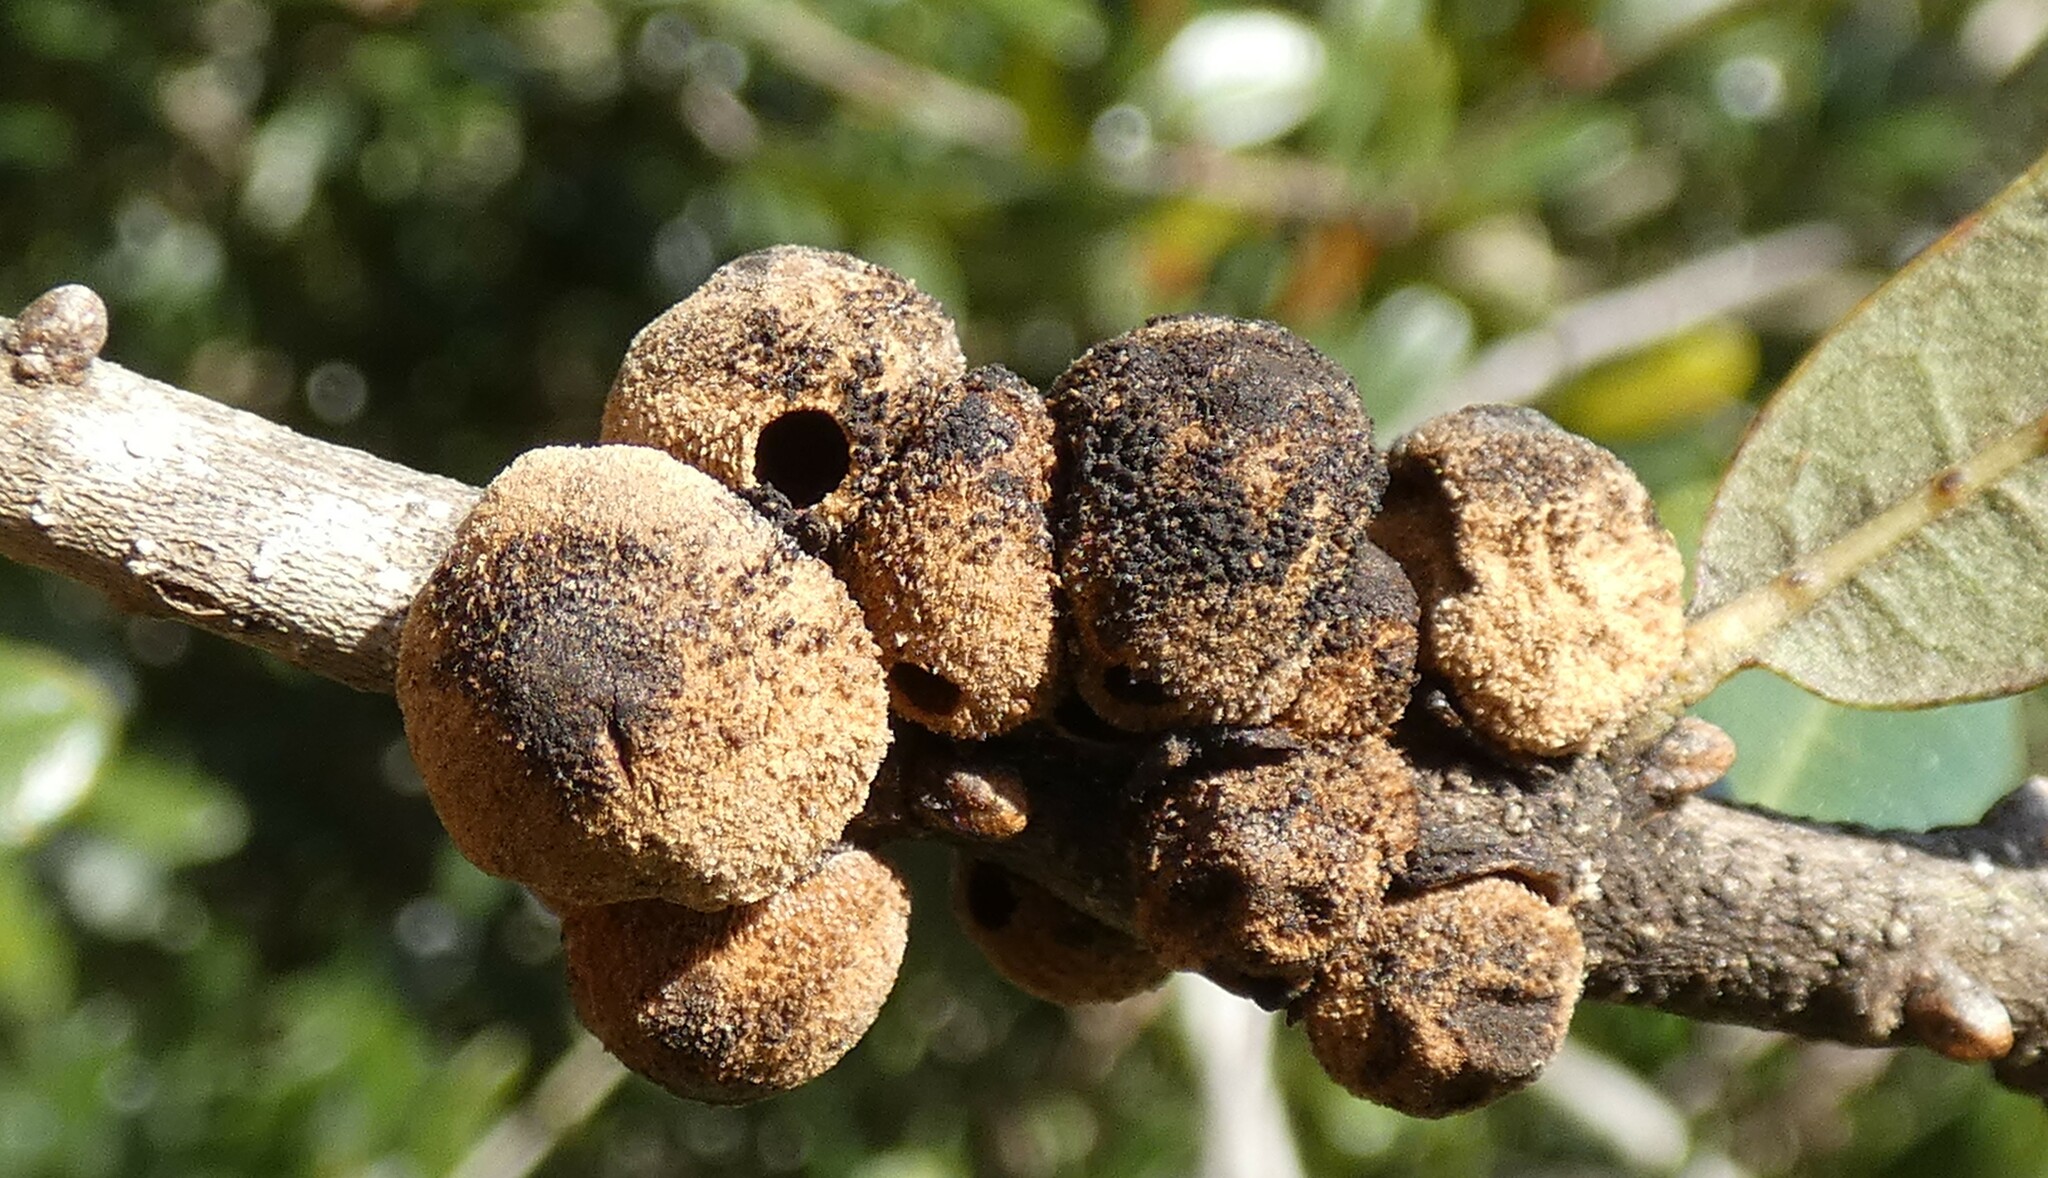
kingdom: Animalia
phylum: Arthropoda
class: Insecta
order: Hymenoptera
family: Cynipidae
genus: Disholcaspis
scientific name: Disholcaspis
